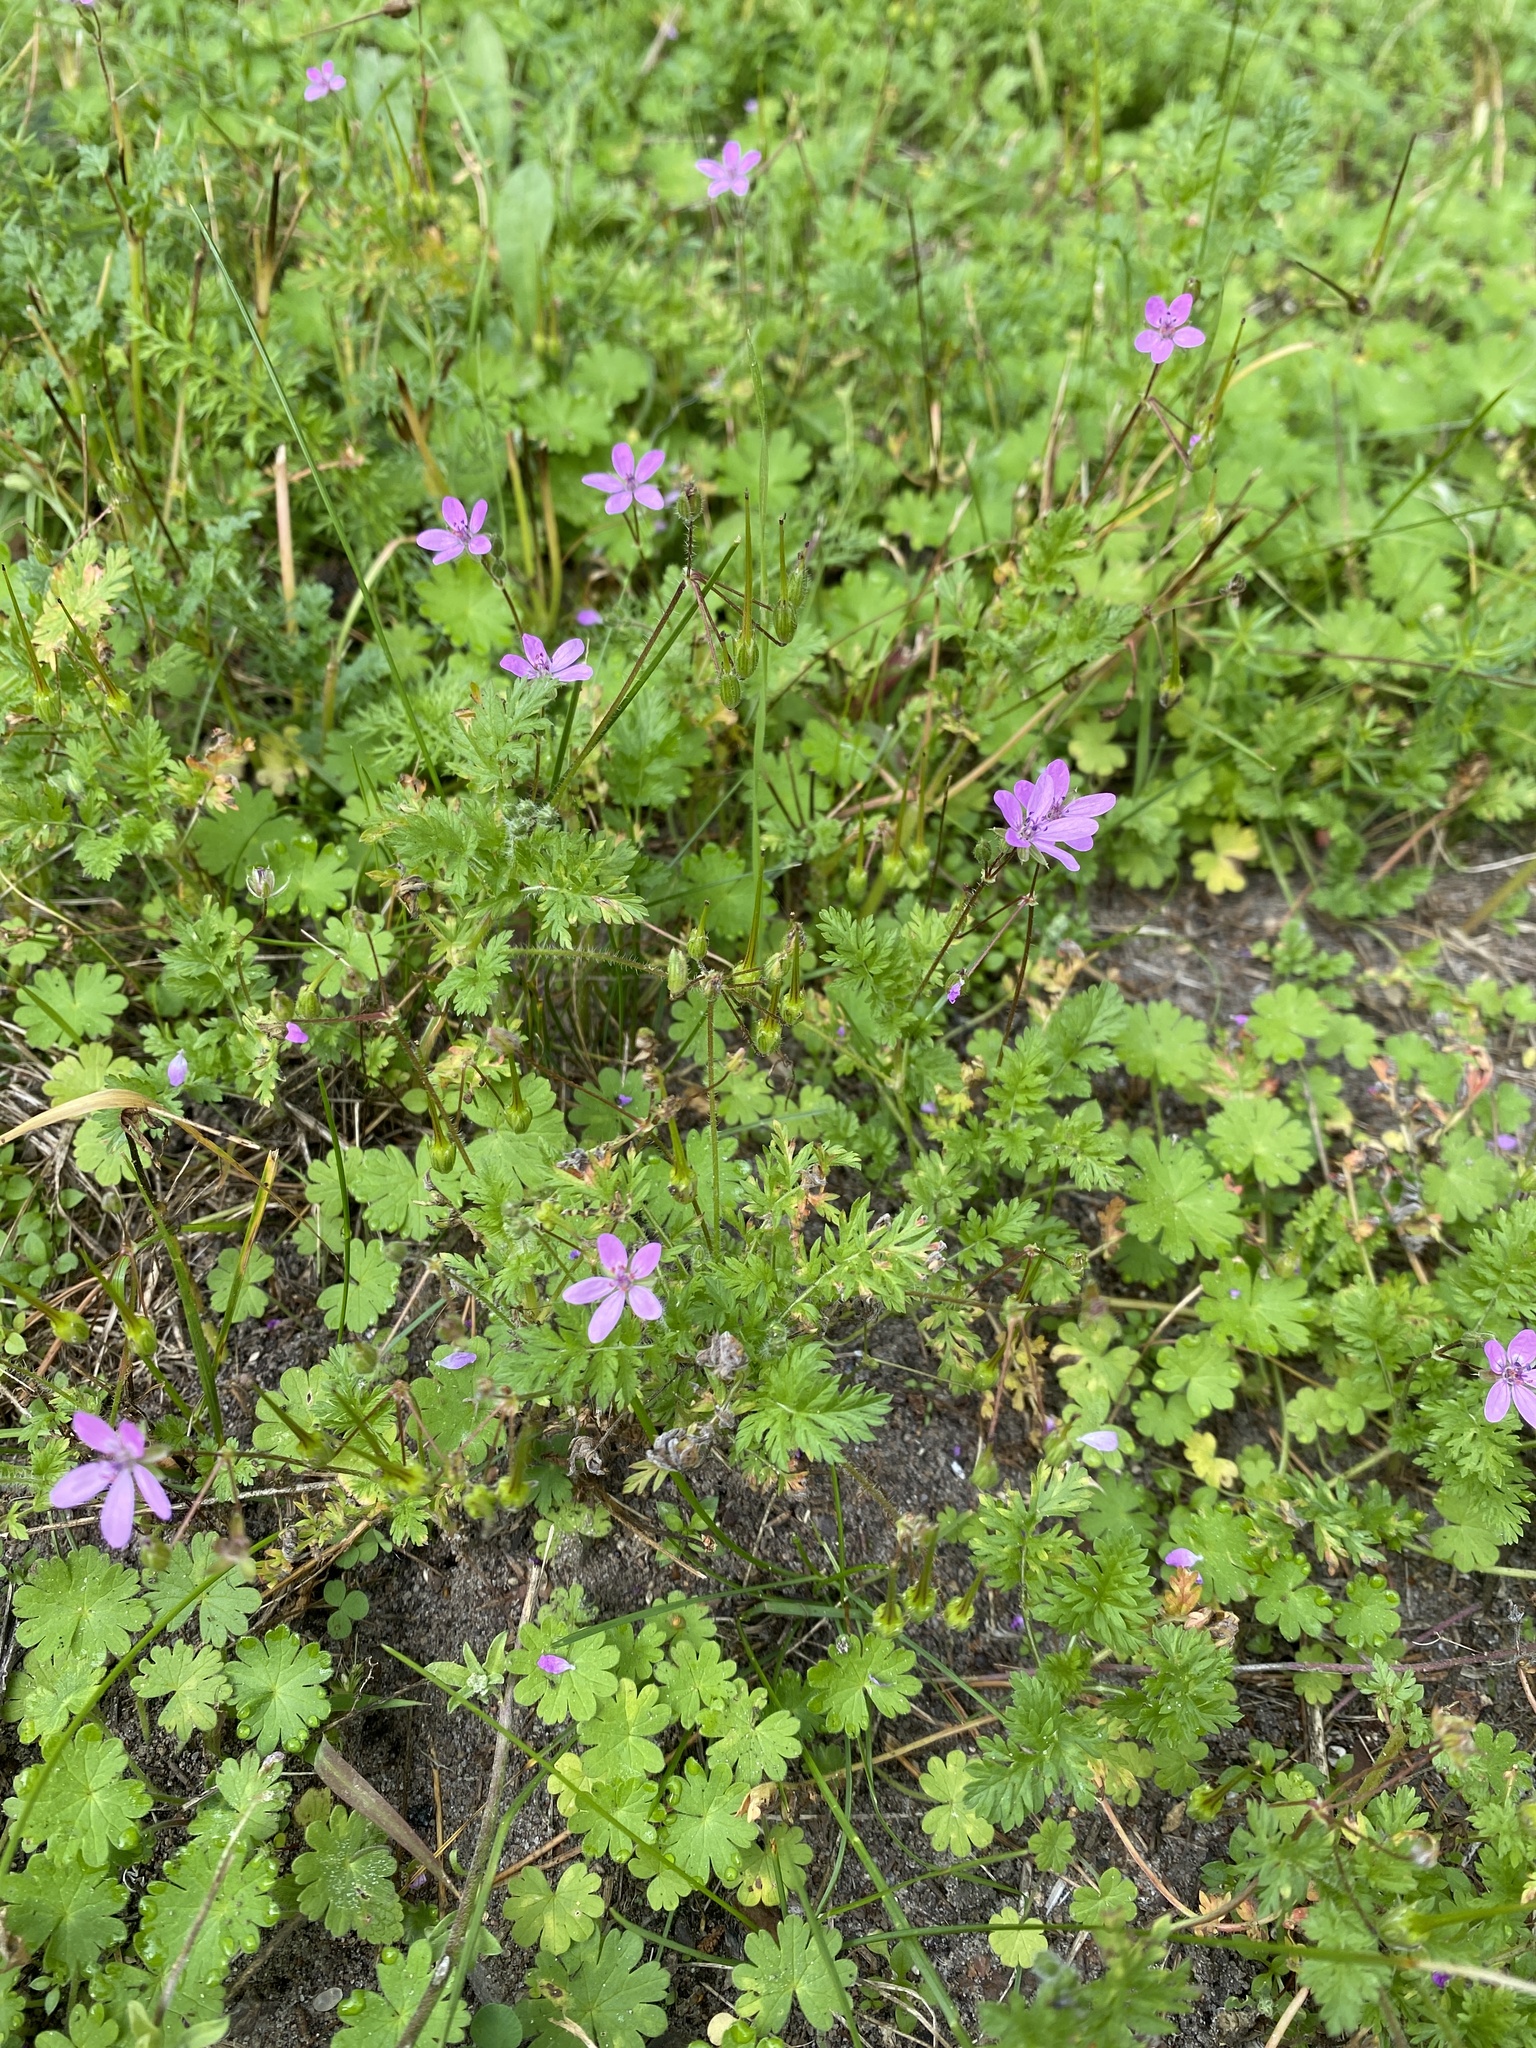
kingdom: Plantae
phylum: Tracheophyta
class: Magnoliopsida
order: Geraniales
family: Geraniaceae
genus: Erodium
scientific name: Erodium cicutarium
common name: Common stork's-bill
